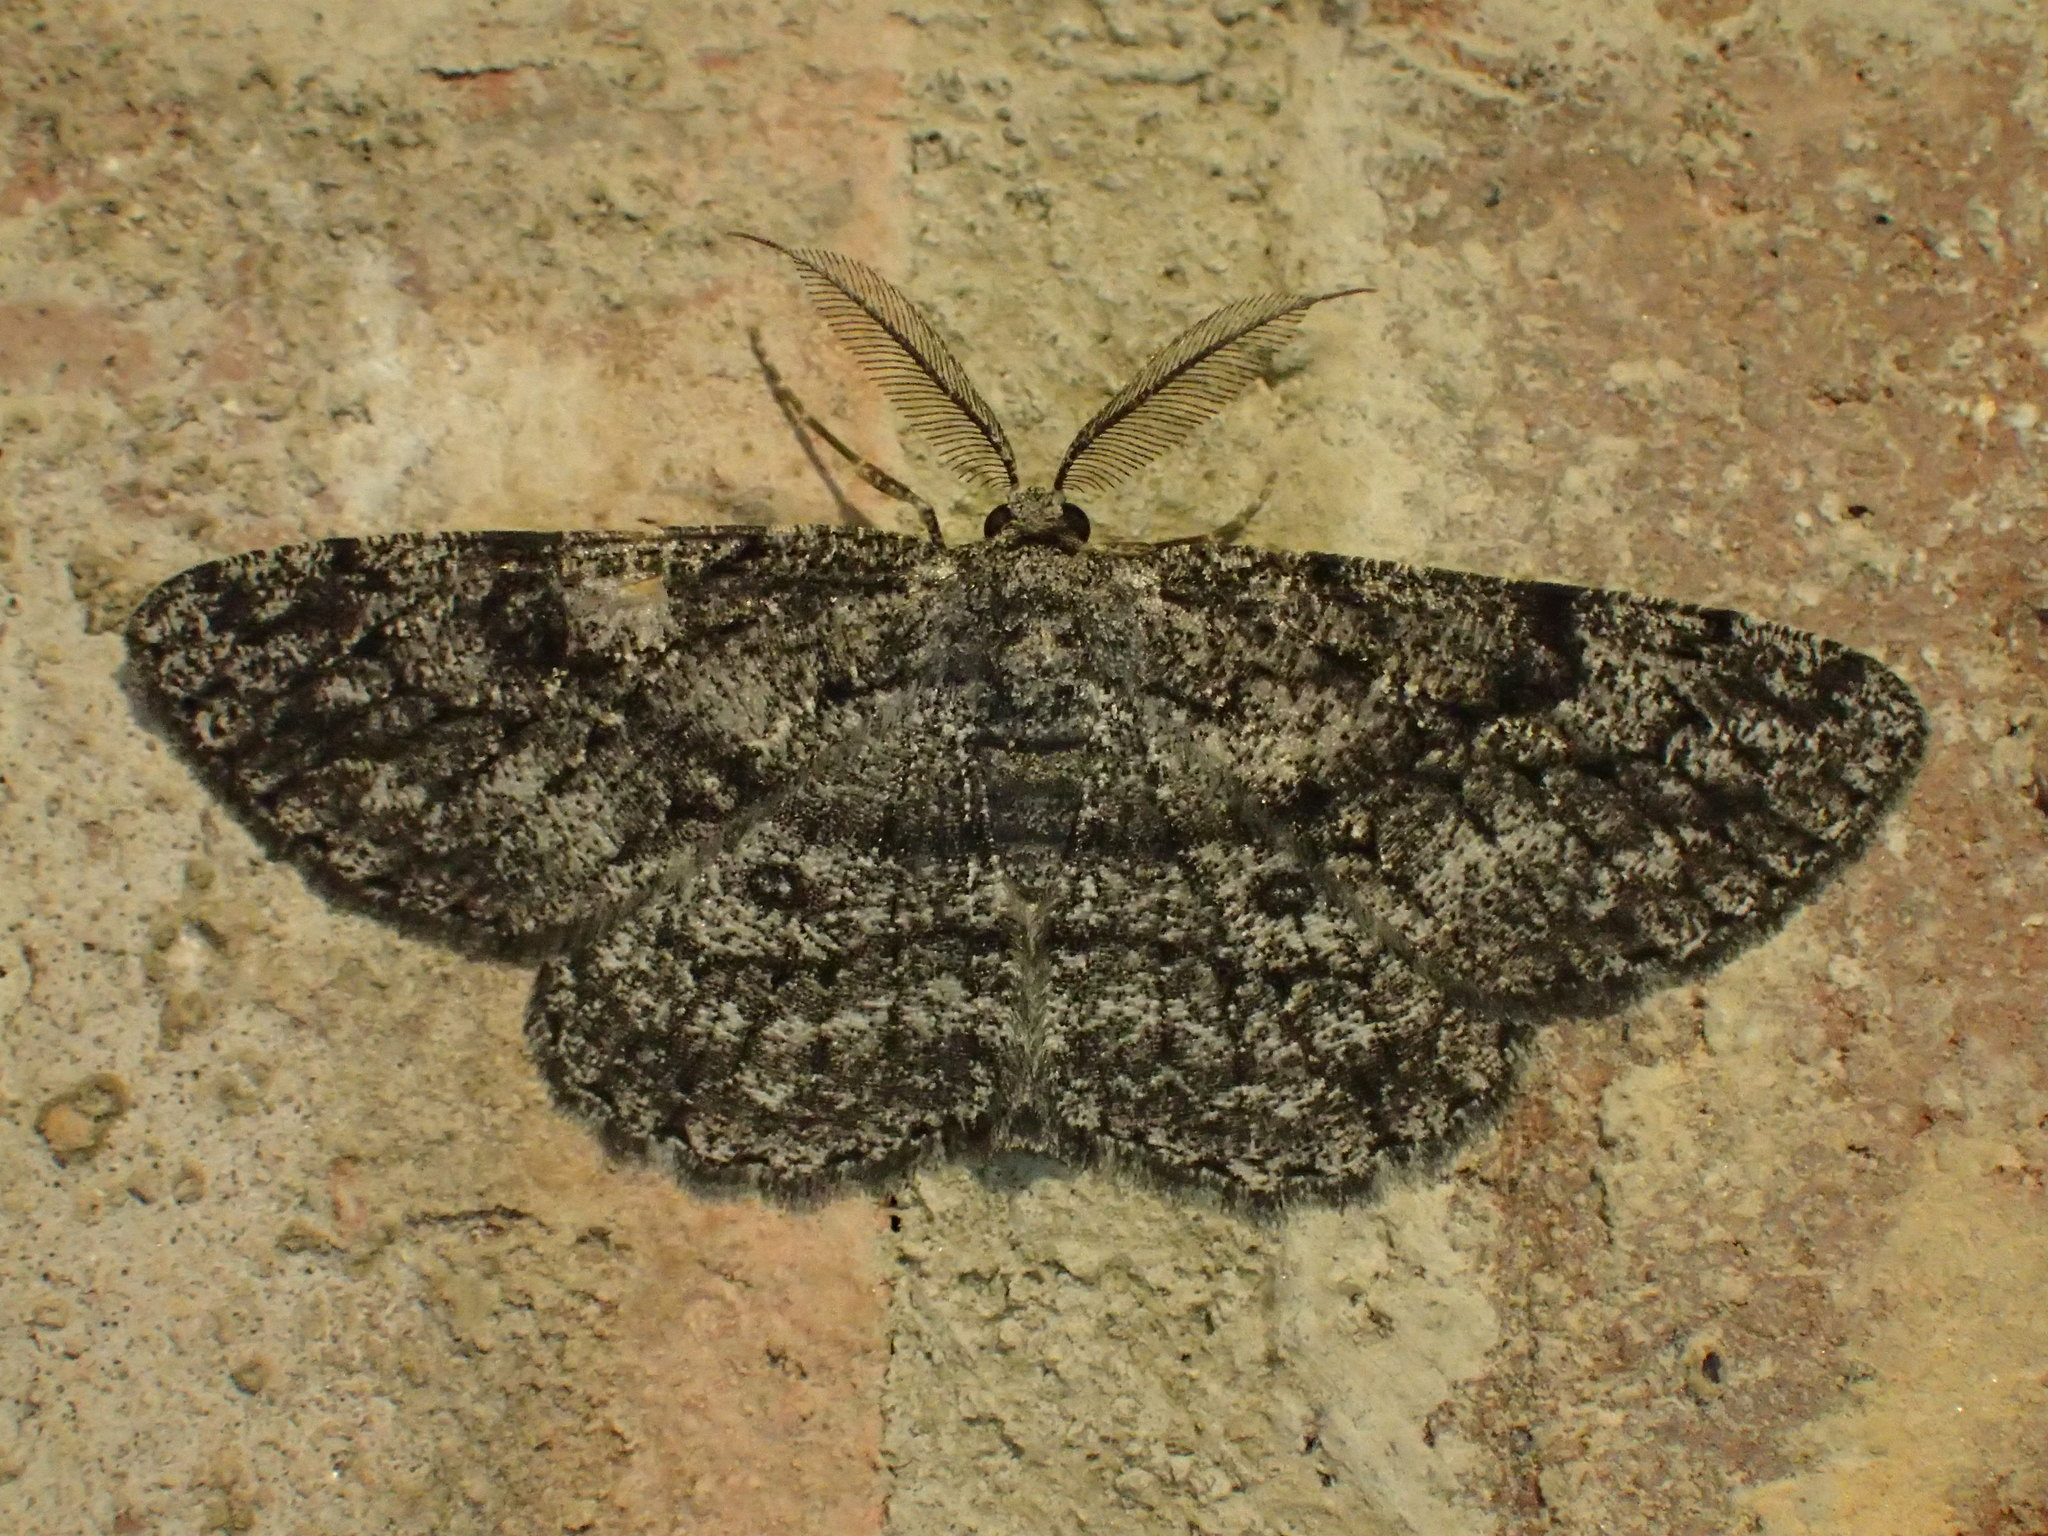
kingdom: Animalia
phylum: Arthropoda
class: Insecta
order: Lepidoptera
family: Geometridae
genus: Hypomecis
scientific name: Hypomecis umbrosaria
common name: Umber moth
